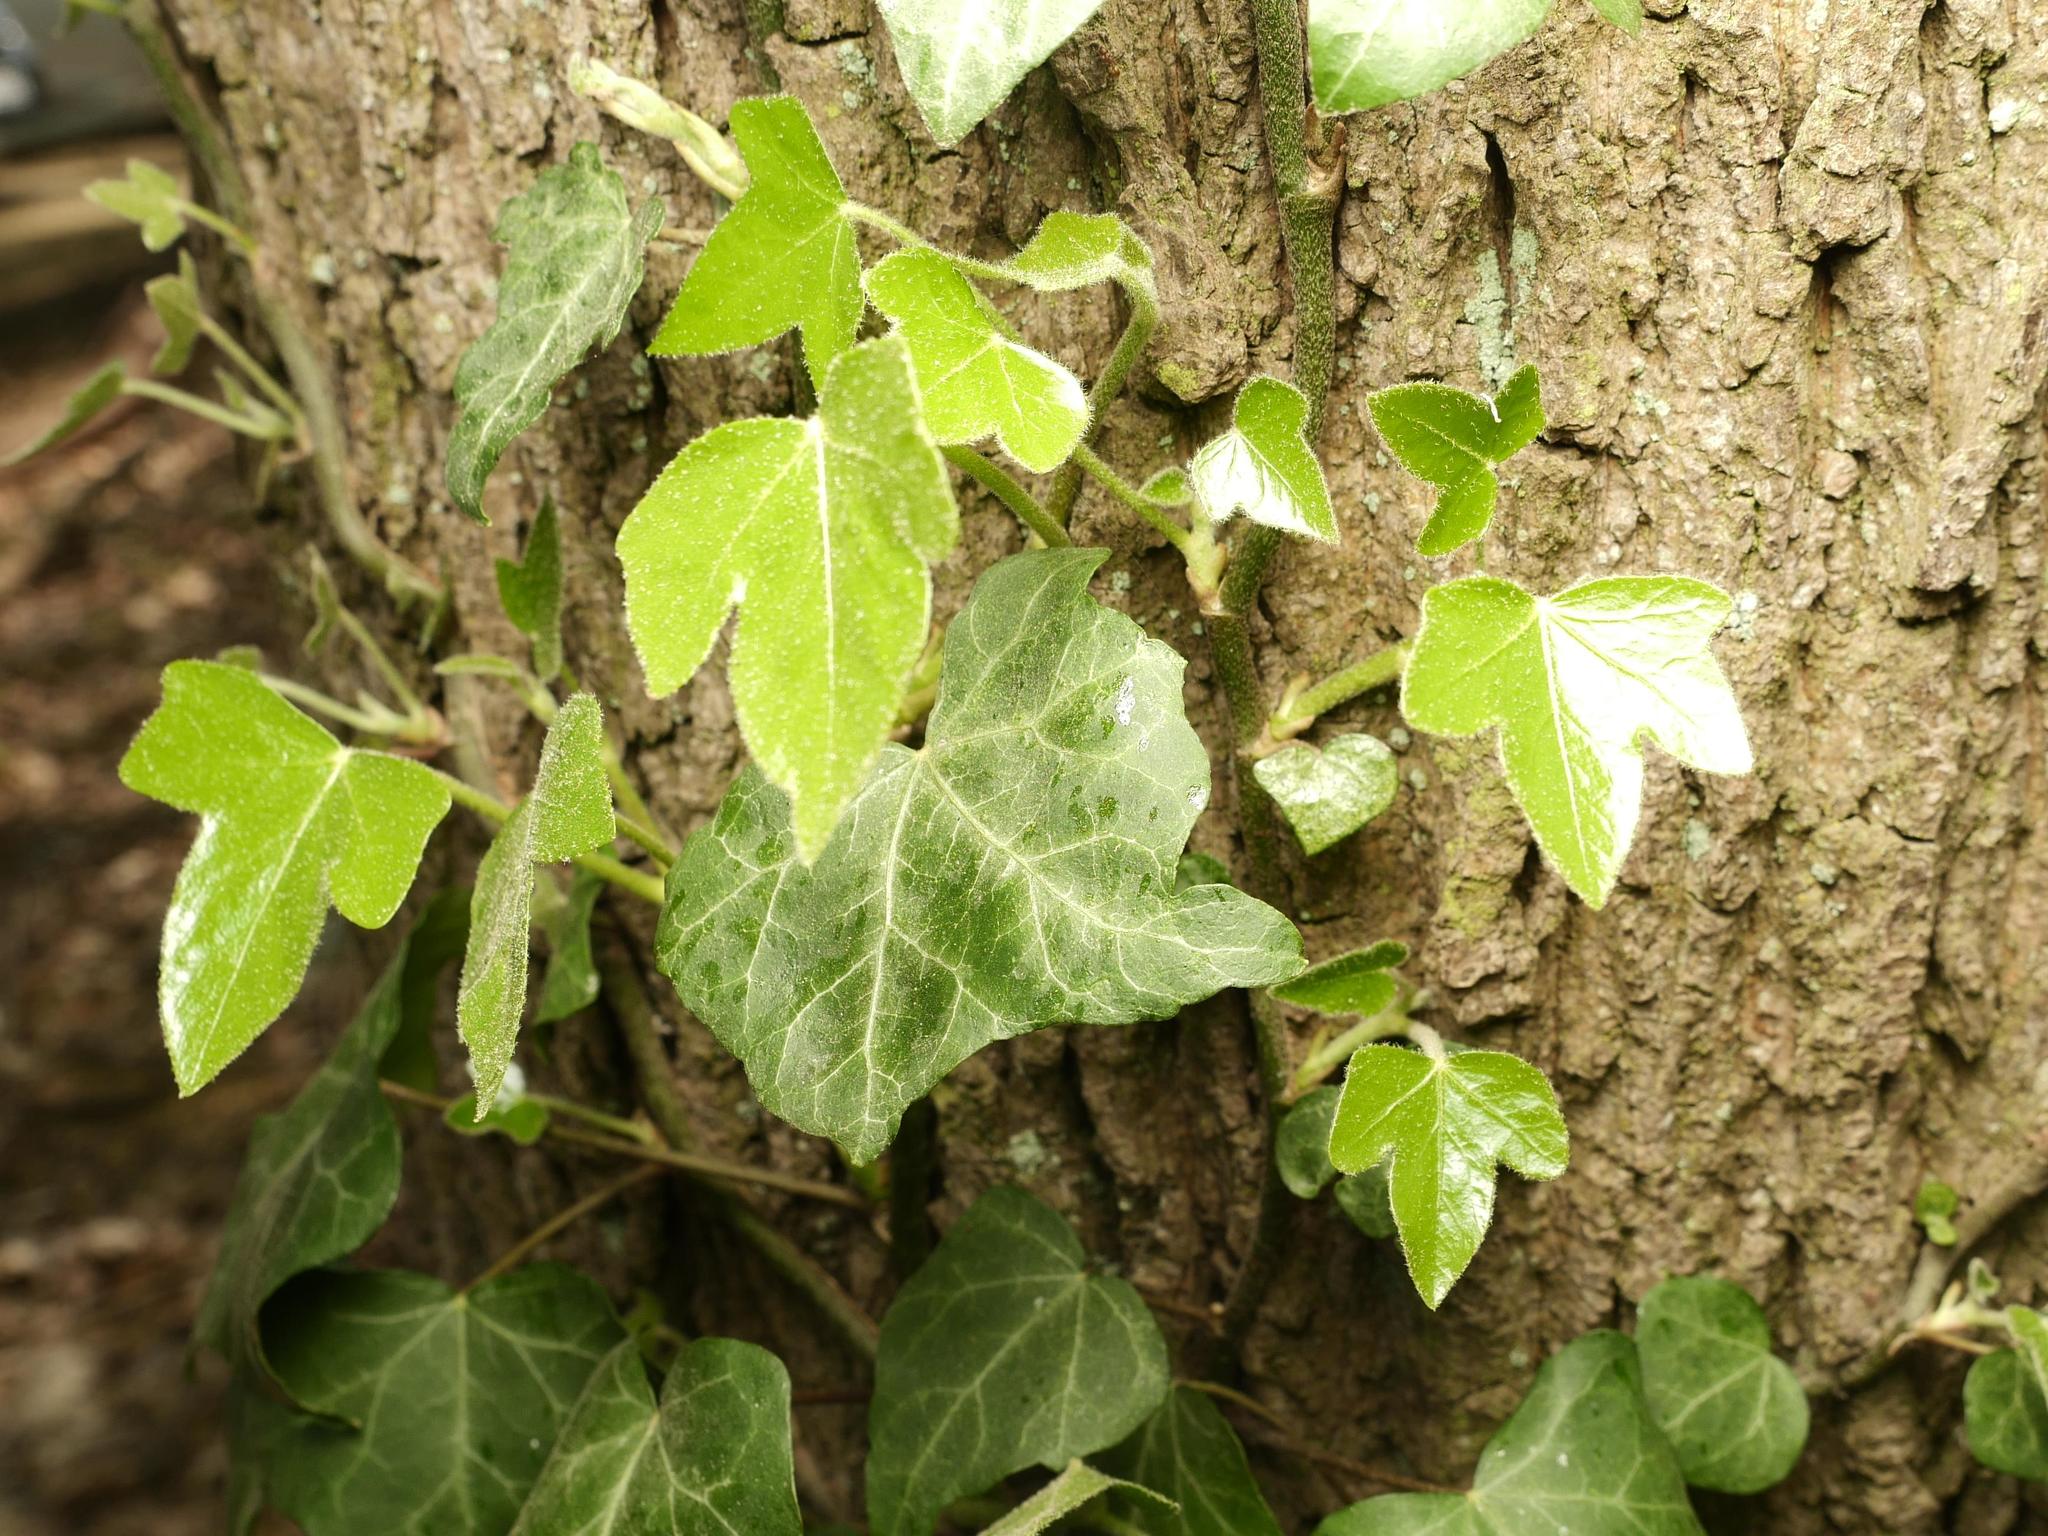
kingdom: Plantae
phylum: Tracheophyta
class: Magnoliopsida
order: Apiales
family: Araliaceae
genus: Hedera
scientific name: Hedera helix
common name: Ivy
